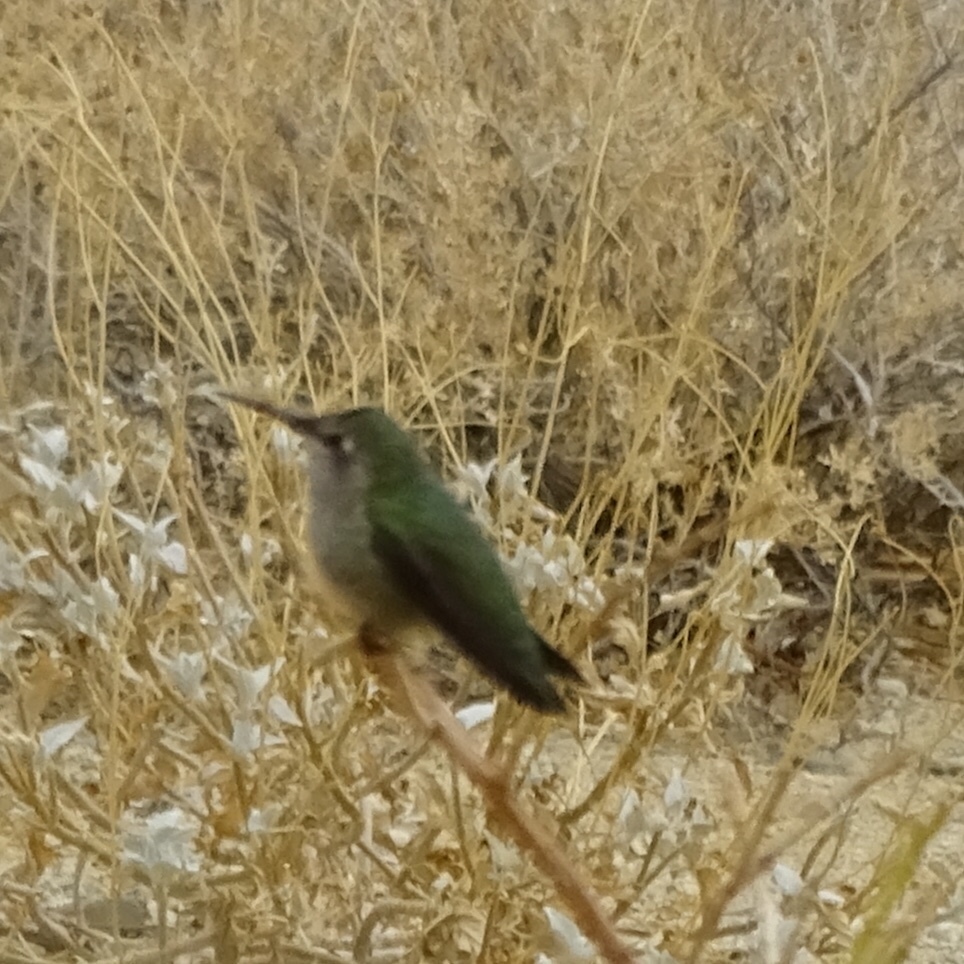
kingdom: Animalia
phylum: Chordata
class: Aves
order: Apodiformes
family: Trochilidae
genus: Calypte
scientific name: Calypte anna
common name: Anna's hummingbird
